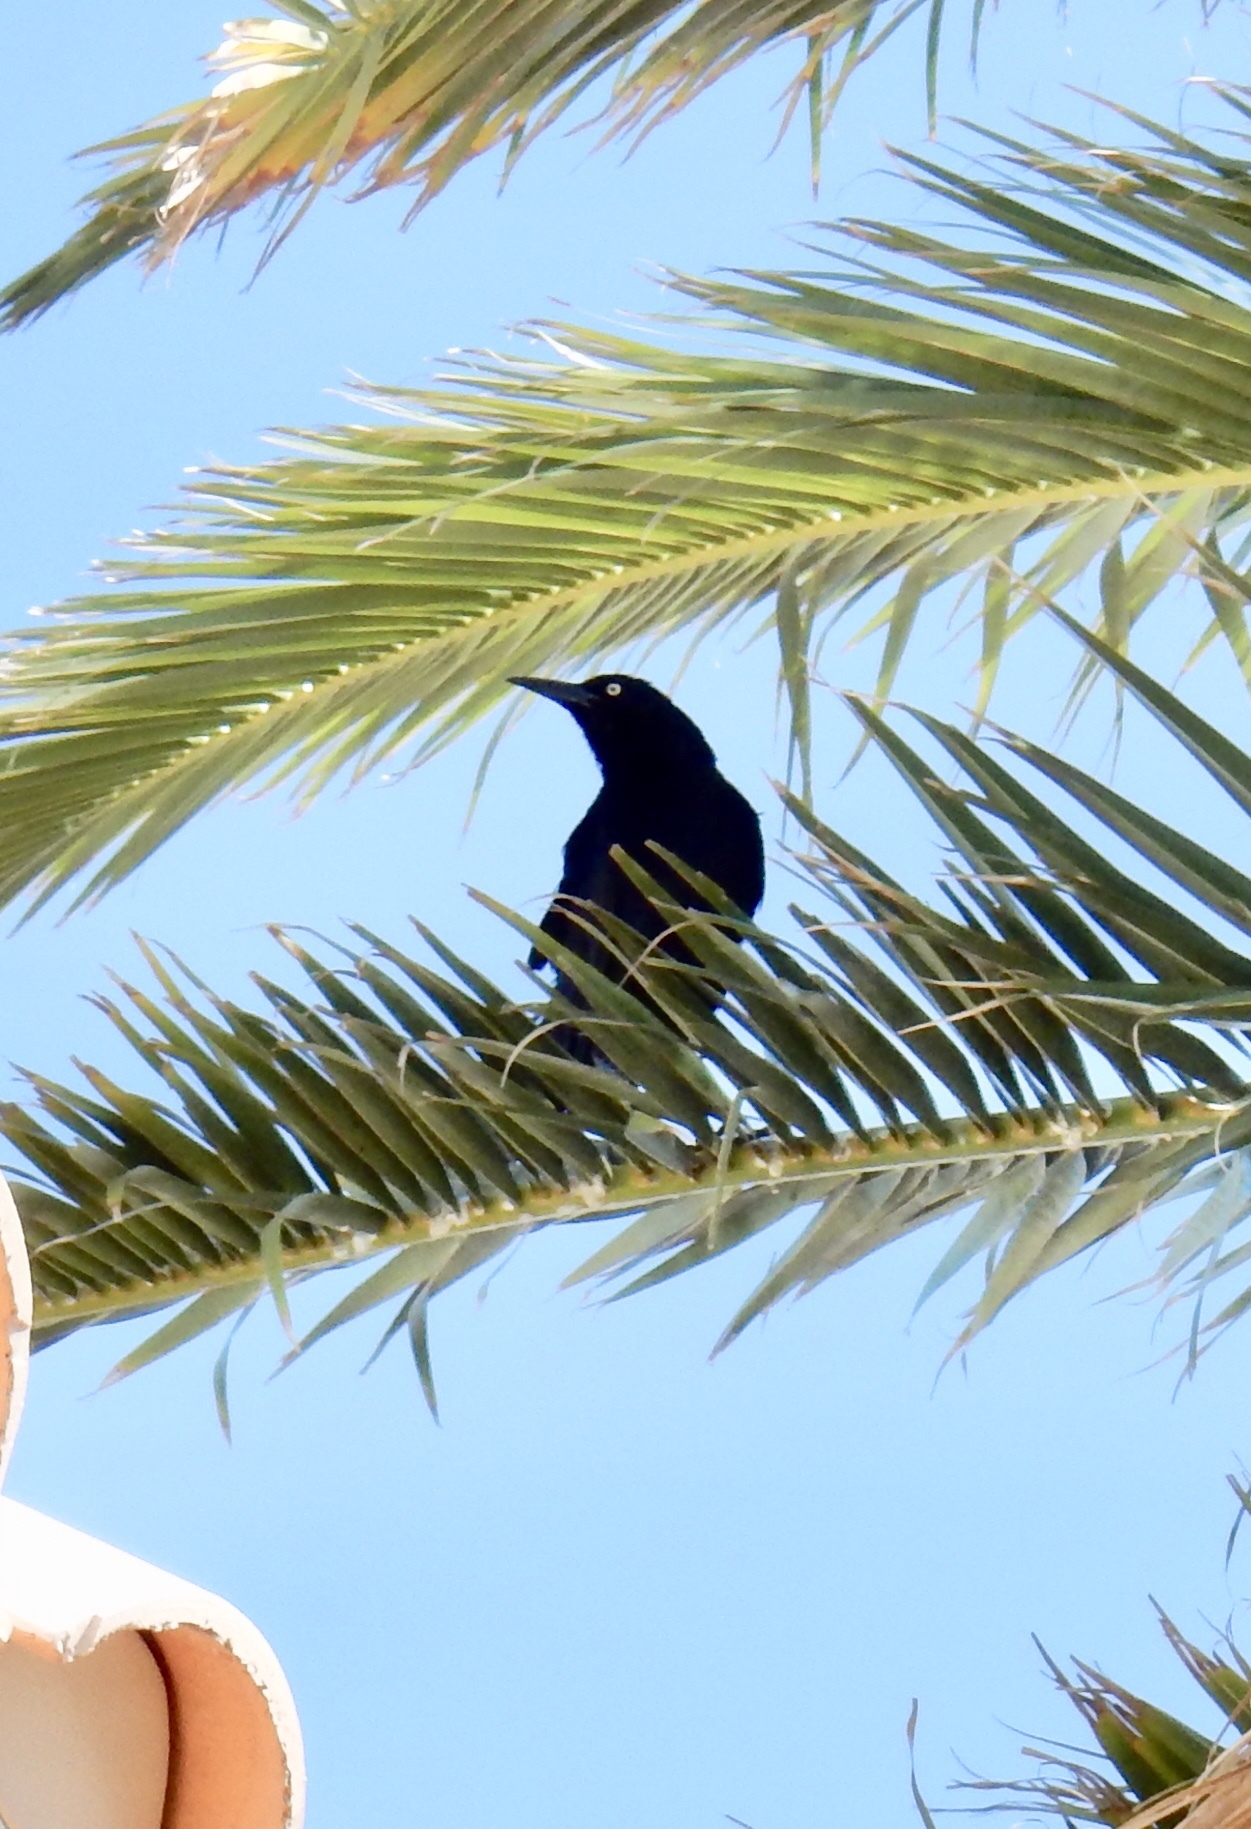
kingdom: Animalia
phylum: Chordata
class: Aves
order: Passeriformes
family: Icteridae
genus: Quiscalus
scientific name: Quiscalus mexicanus
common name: Great-tailed grackle
